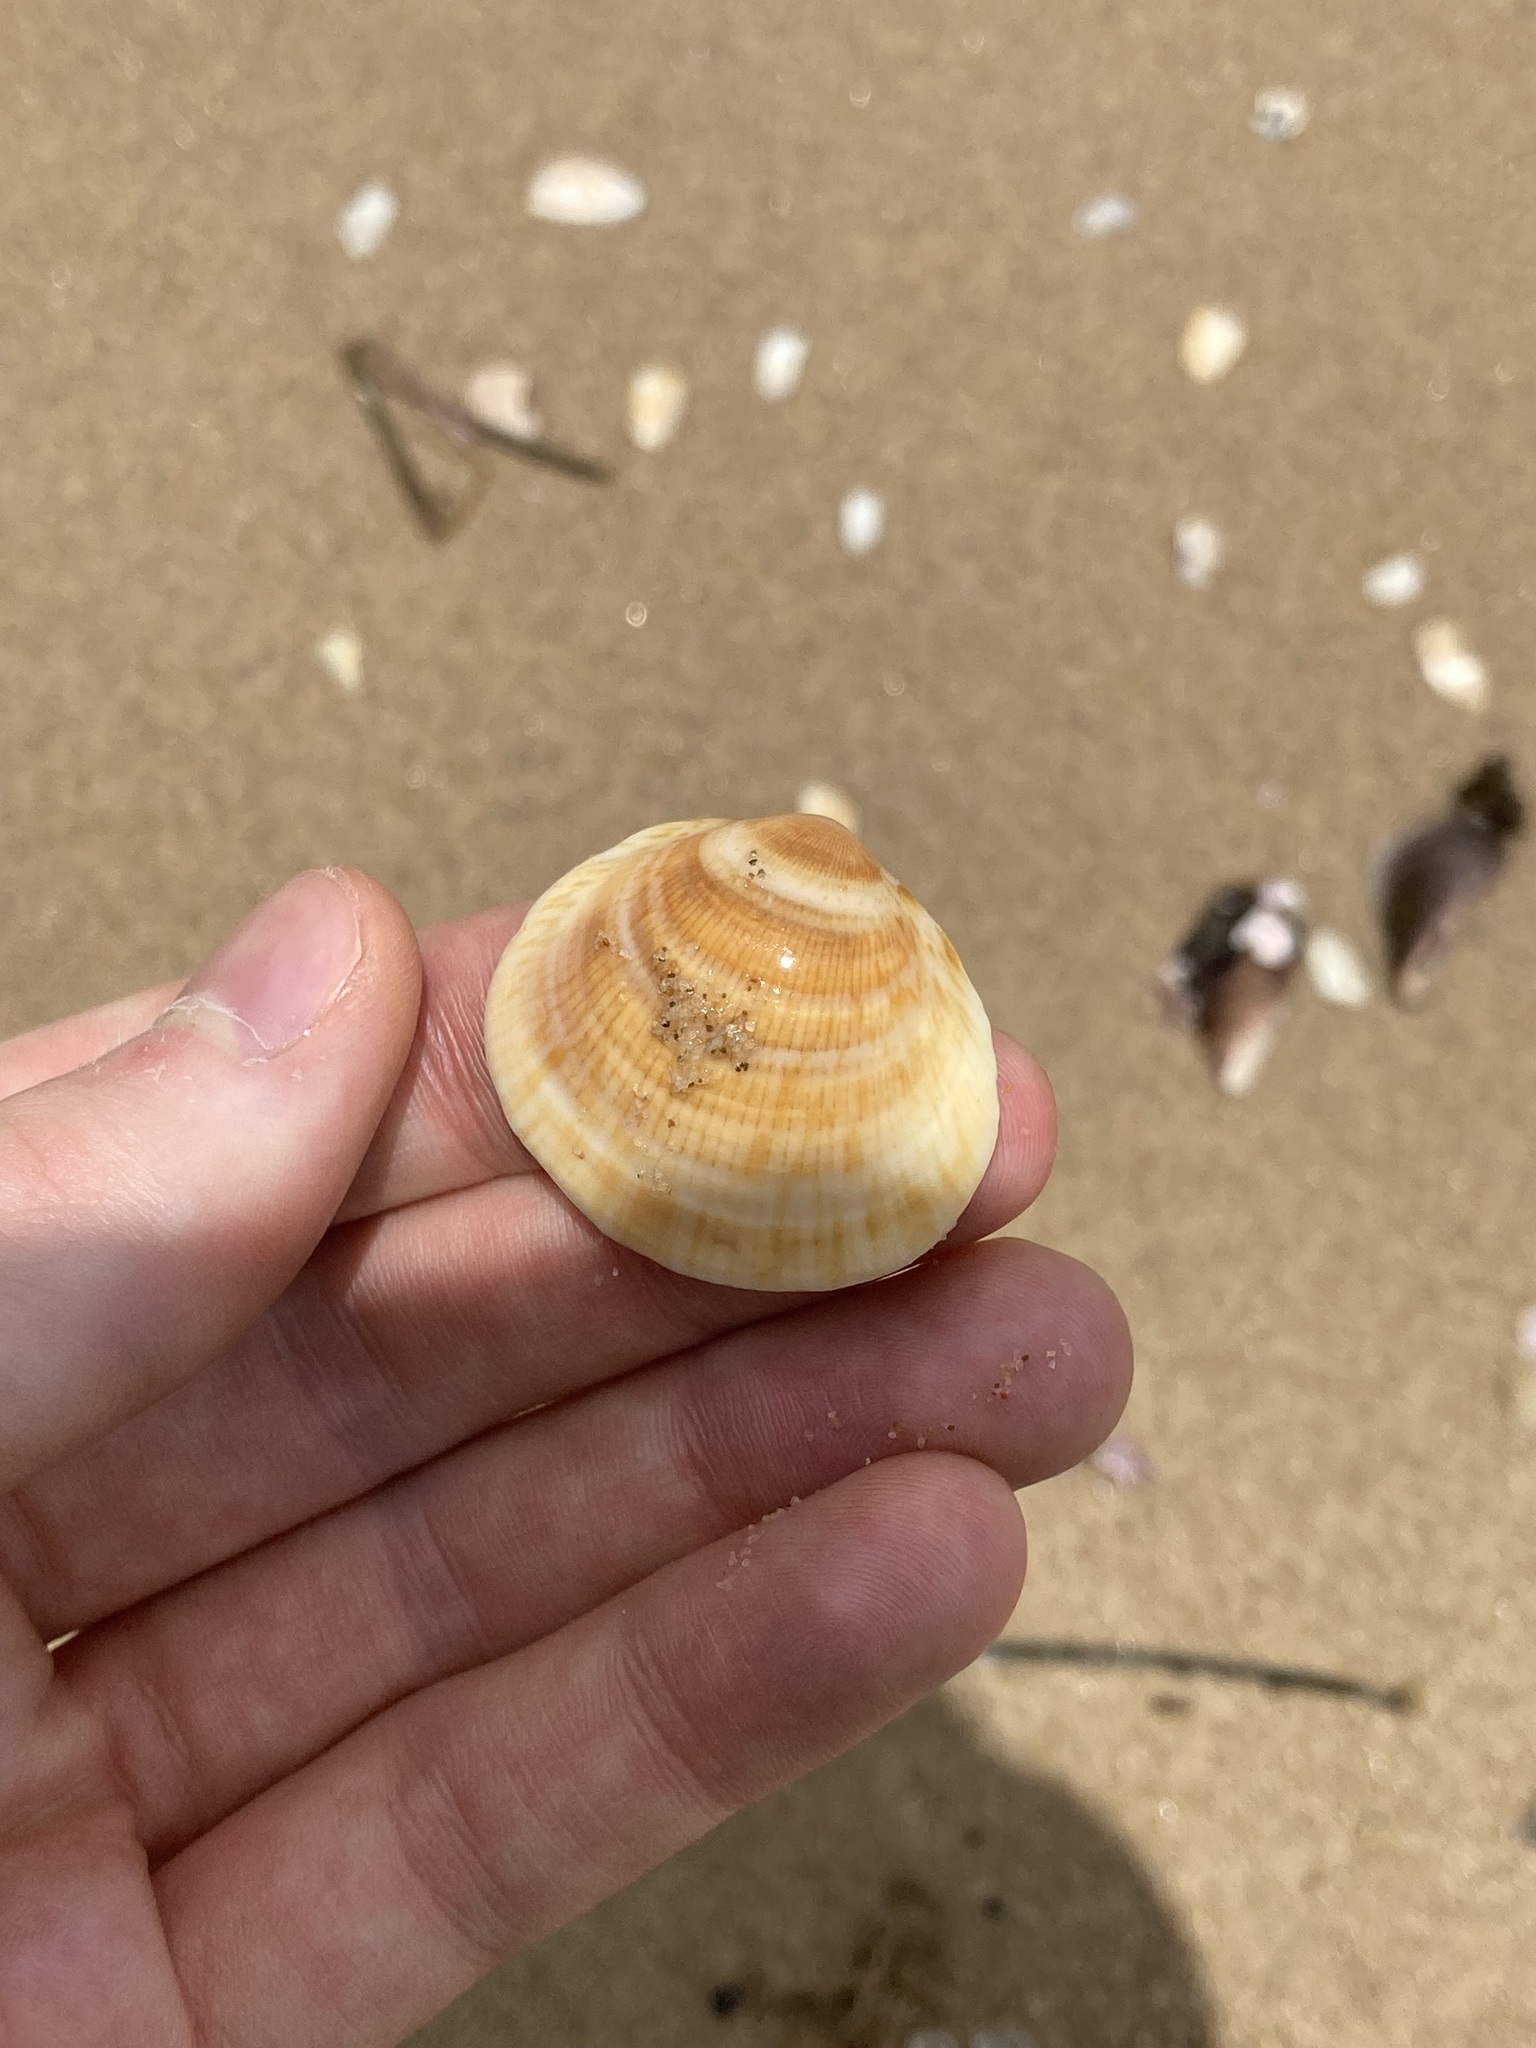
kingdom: Animalia
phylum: Mollusca
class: Bivalvia
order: Arcida
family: Glycymerididae
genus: Glycymeris
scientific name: Glycymeris grayana
